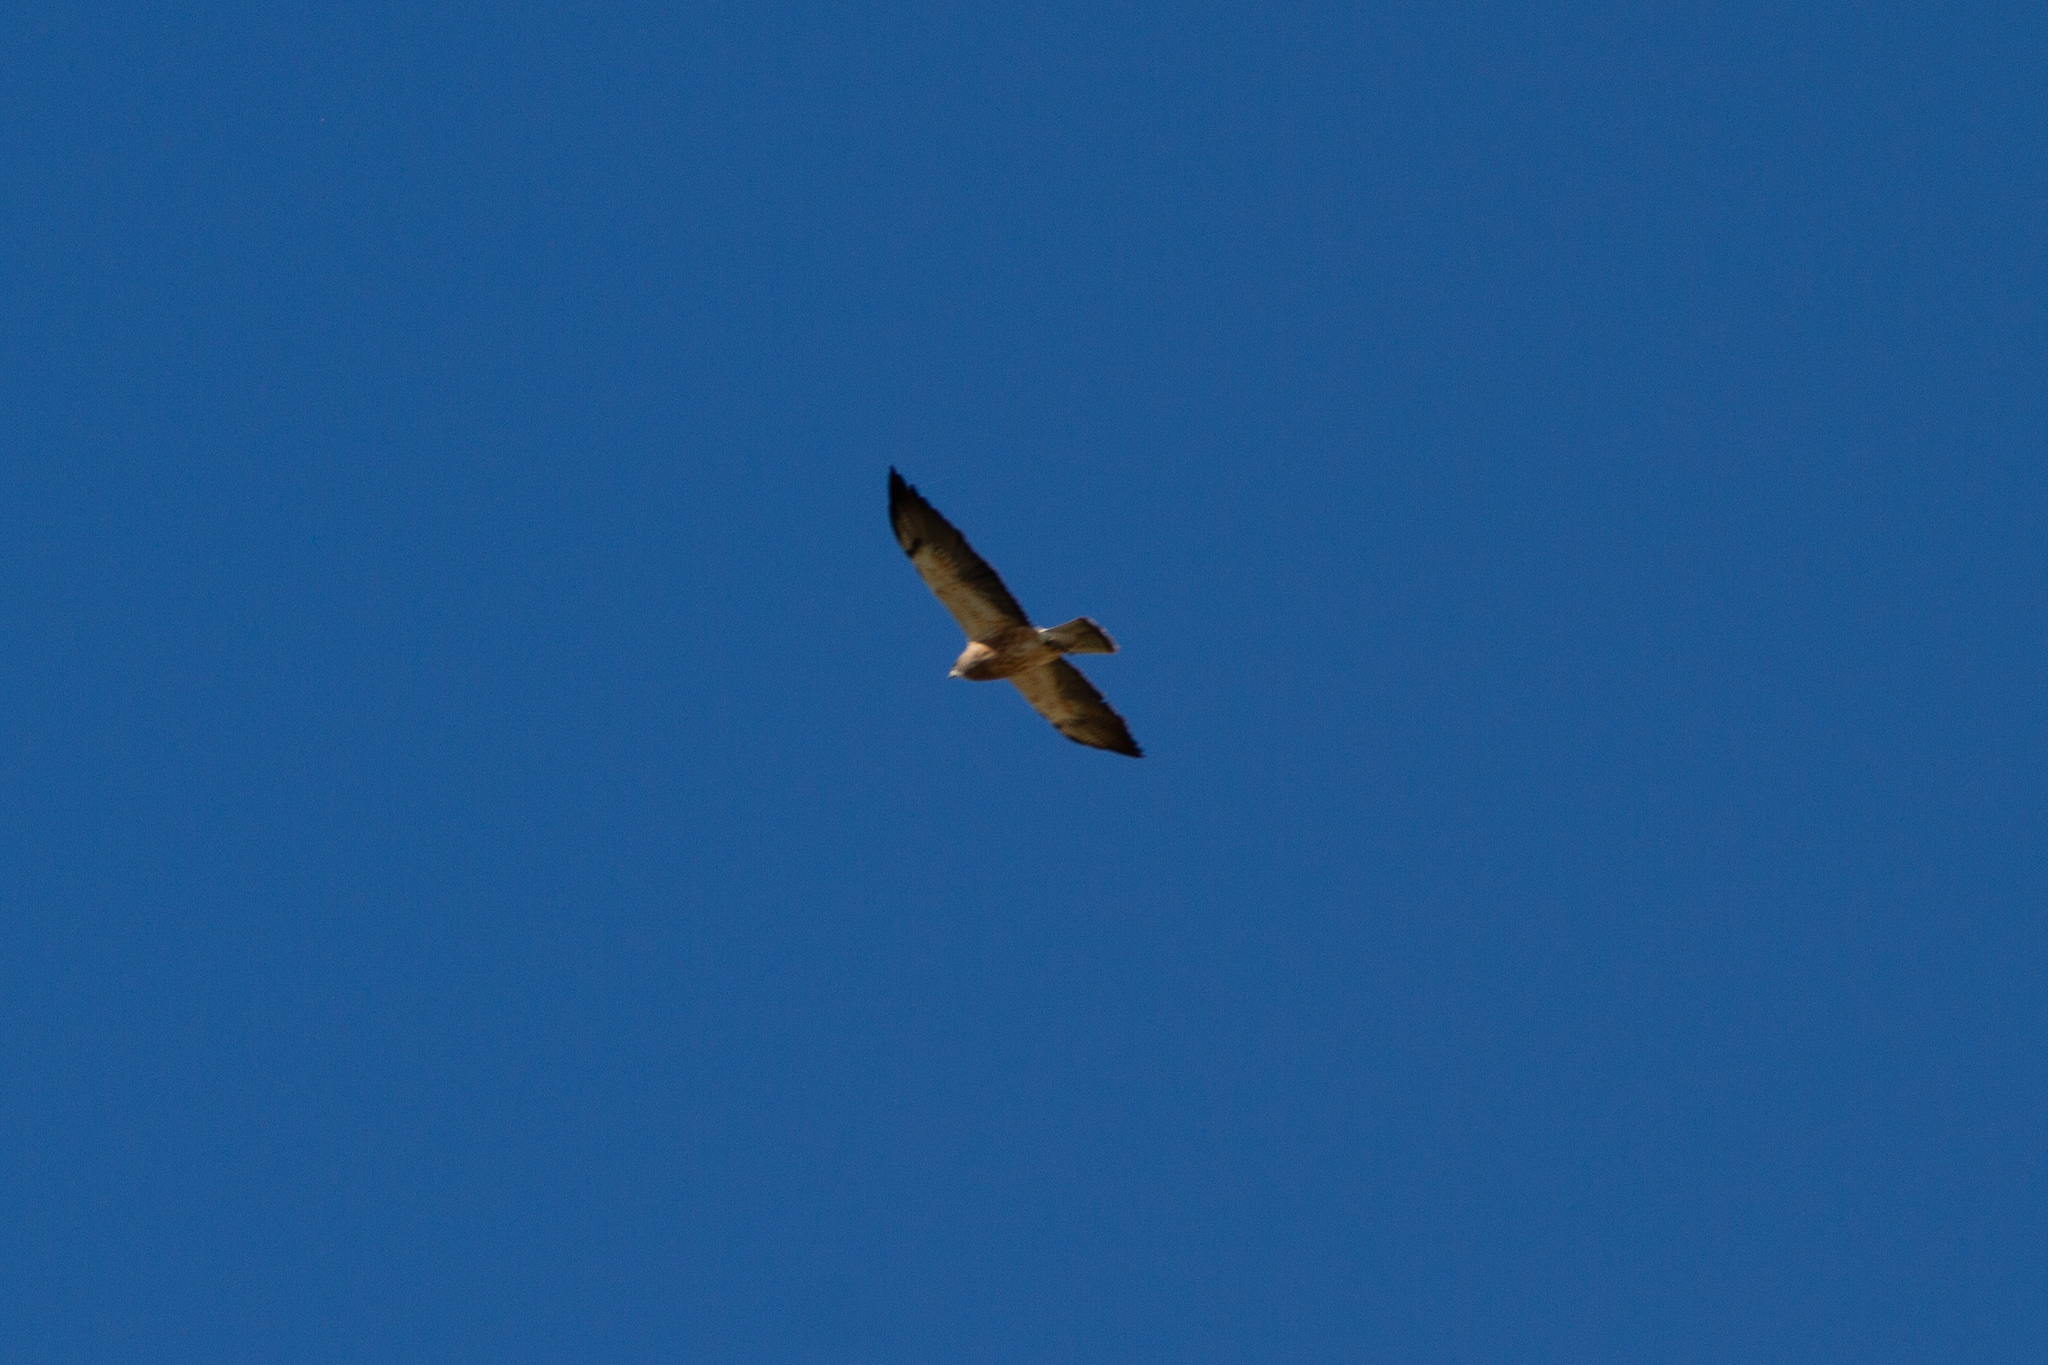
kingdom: Animalia
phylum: Chordata
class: Aves
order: Accipitriformes
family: Accipitridae
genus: Buteo
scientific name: Buteo swainsoni
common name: Swainson's hawk
